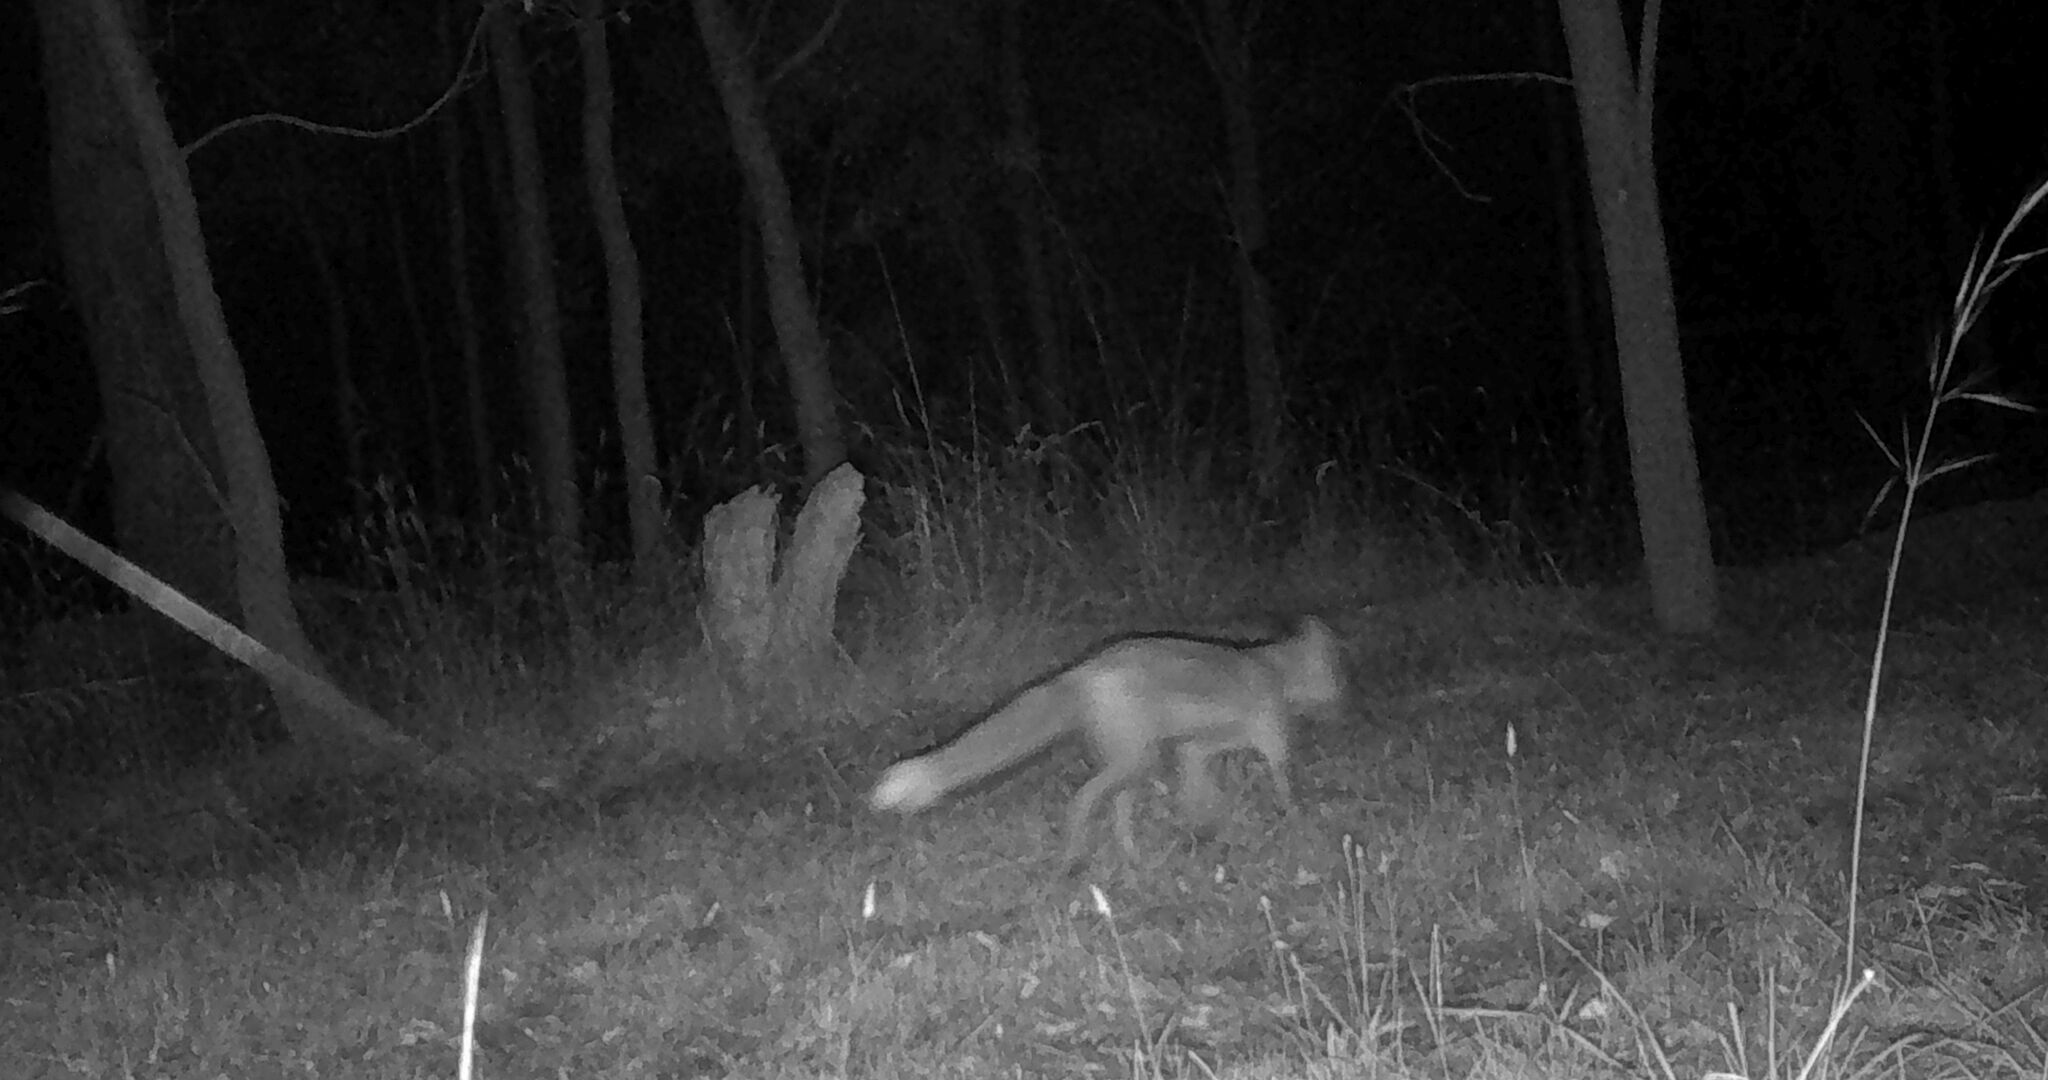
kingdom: Animalia
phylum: Chordata
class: Mammalia
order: Carnivora
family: Canidae
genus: Vulpes
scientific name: Vulpes vulpes
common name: Red fox
